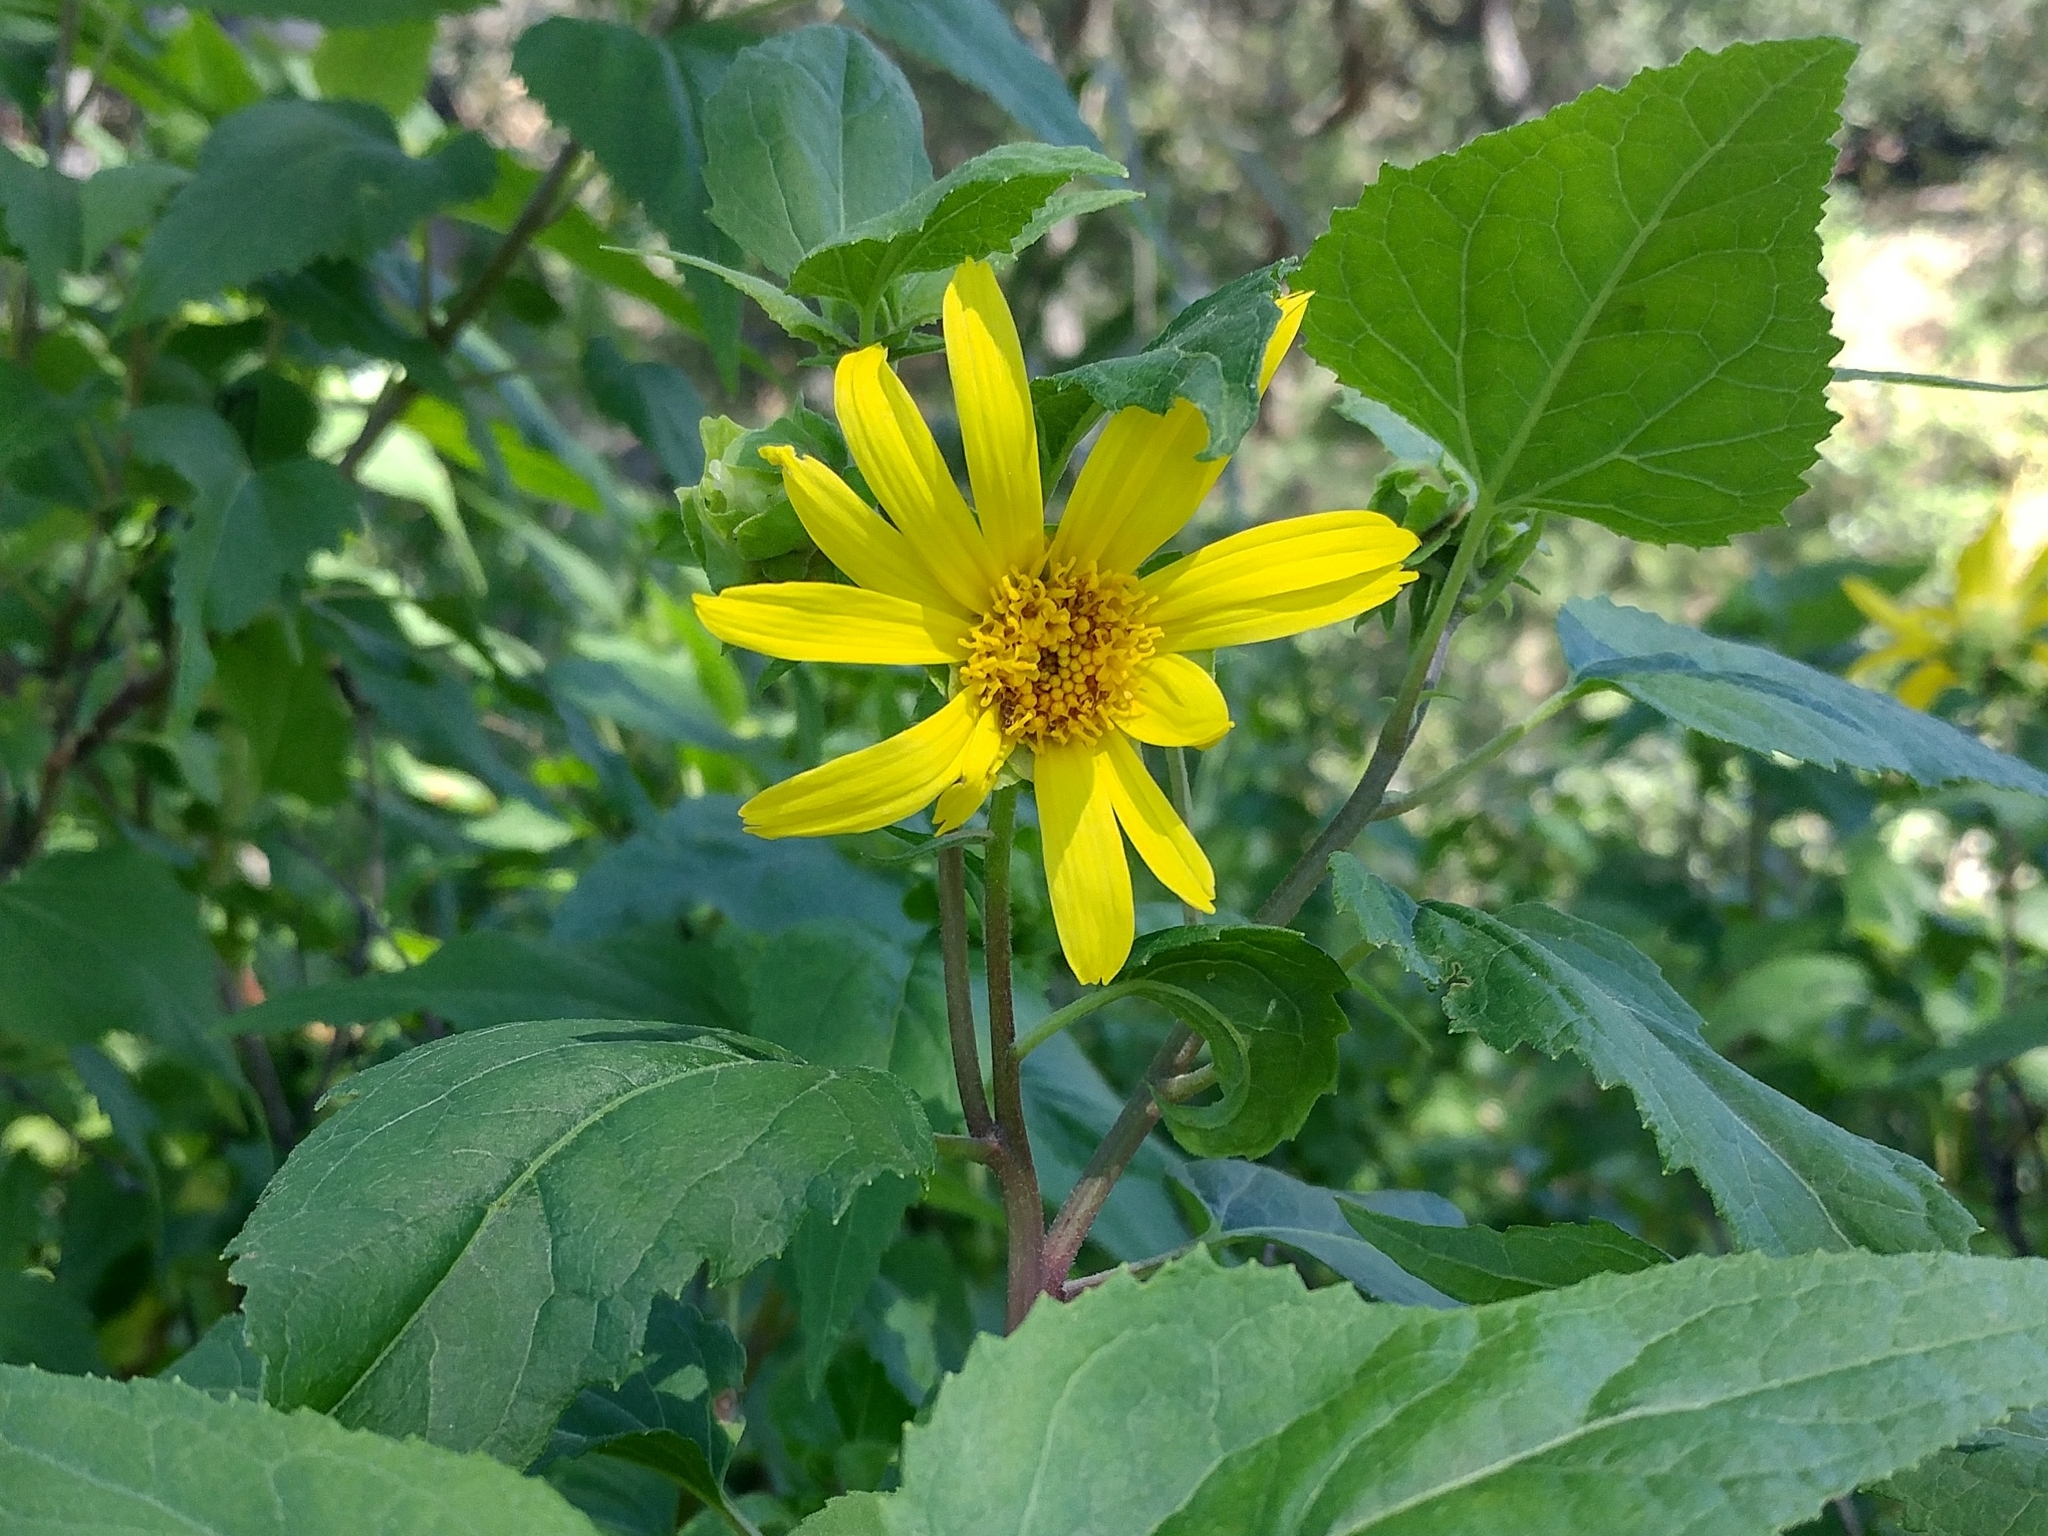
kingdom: Plantae
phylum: Tracheophyta
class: Magnoliopsida
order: Asterales
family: Asteraceae
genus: Venegasia
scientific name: Venegasia carpesioides
